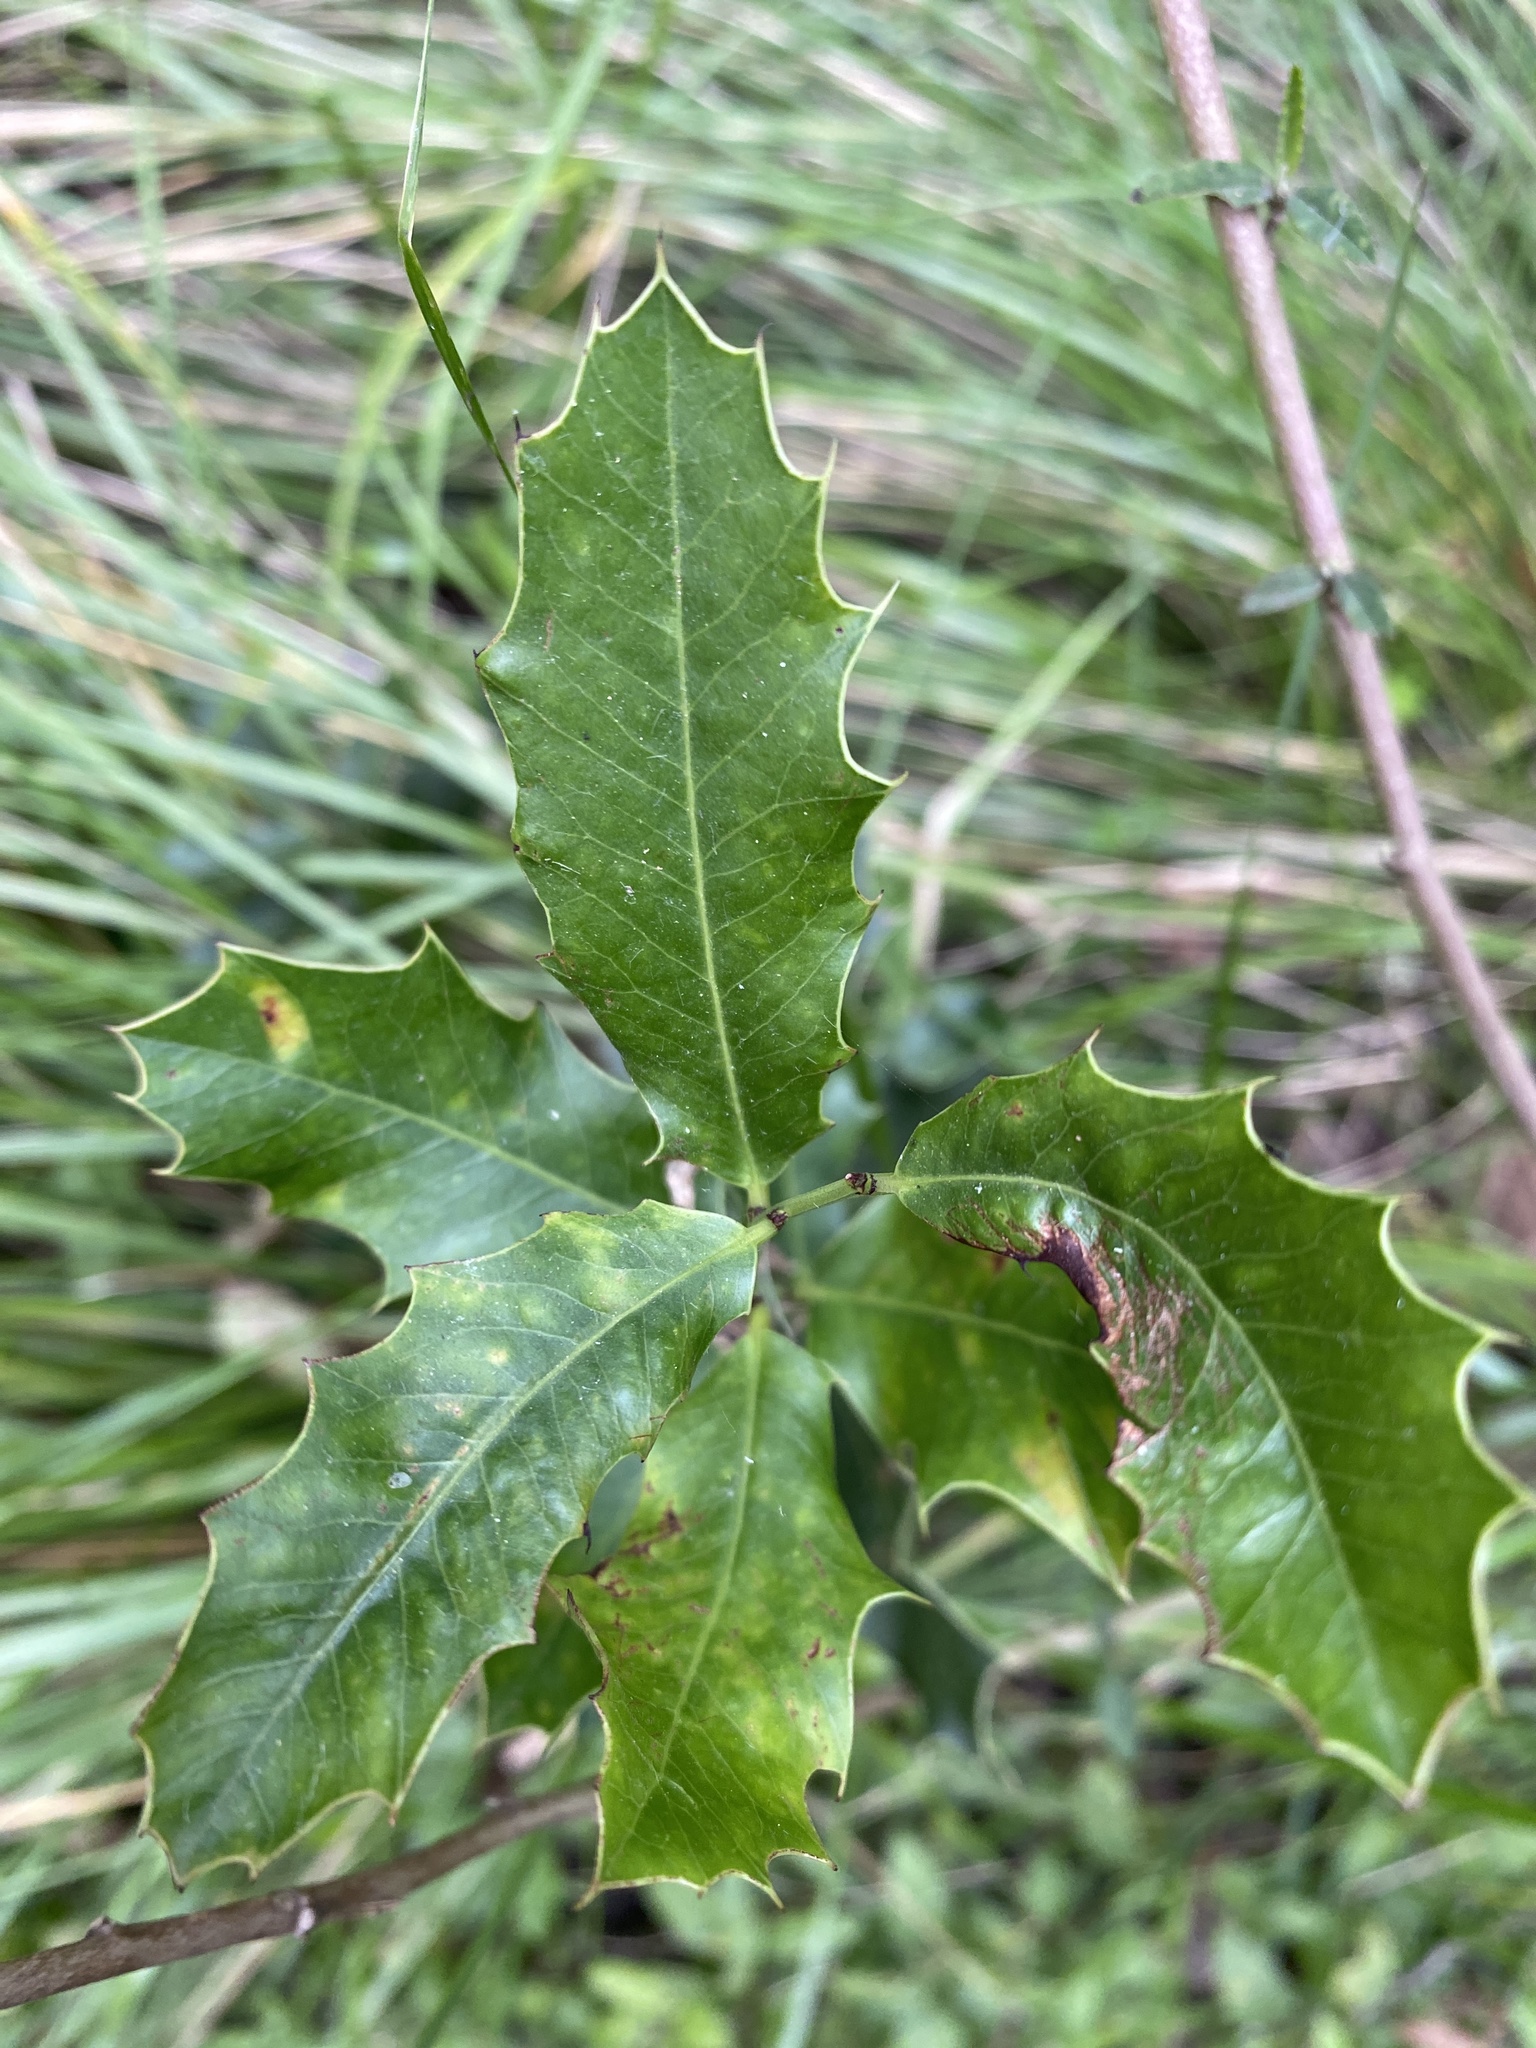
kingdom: Plantae
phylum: Tracheophyta
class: Magnoliopsida
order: Celastrales
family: Celastraceae
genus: Monteverdia
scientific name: Monteverdia
